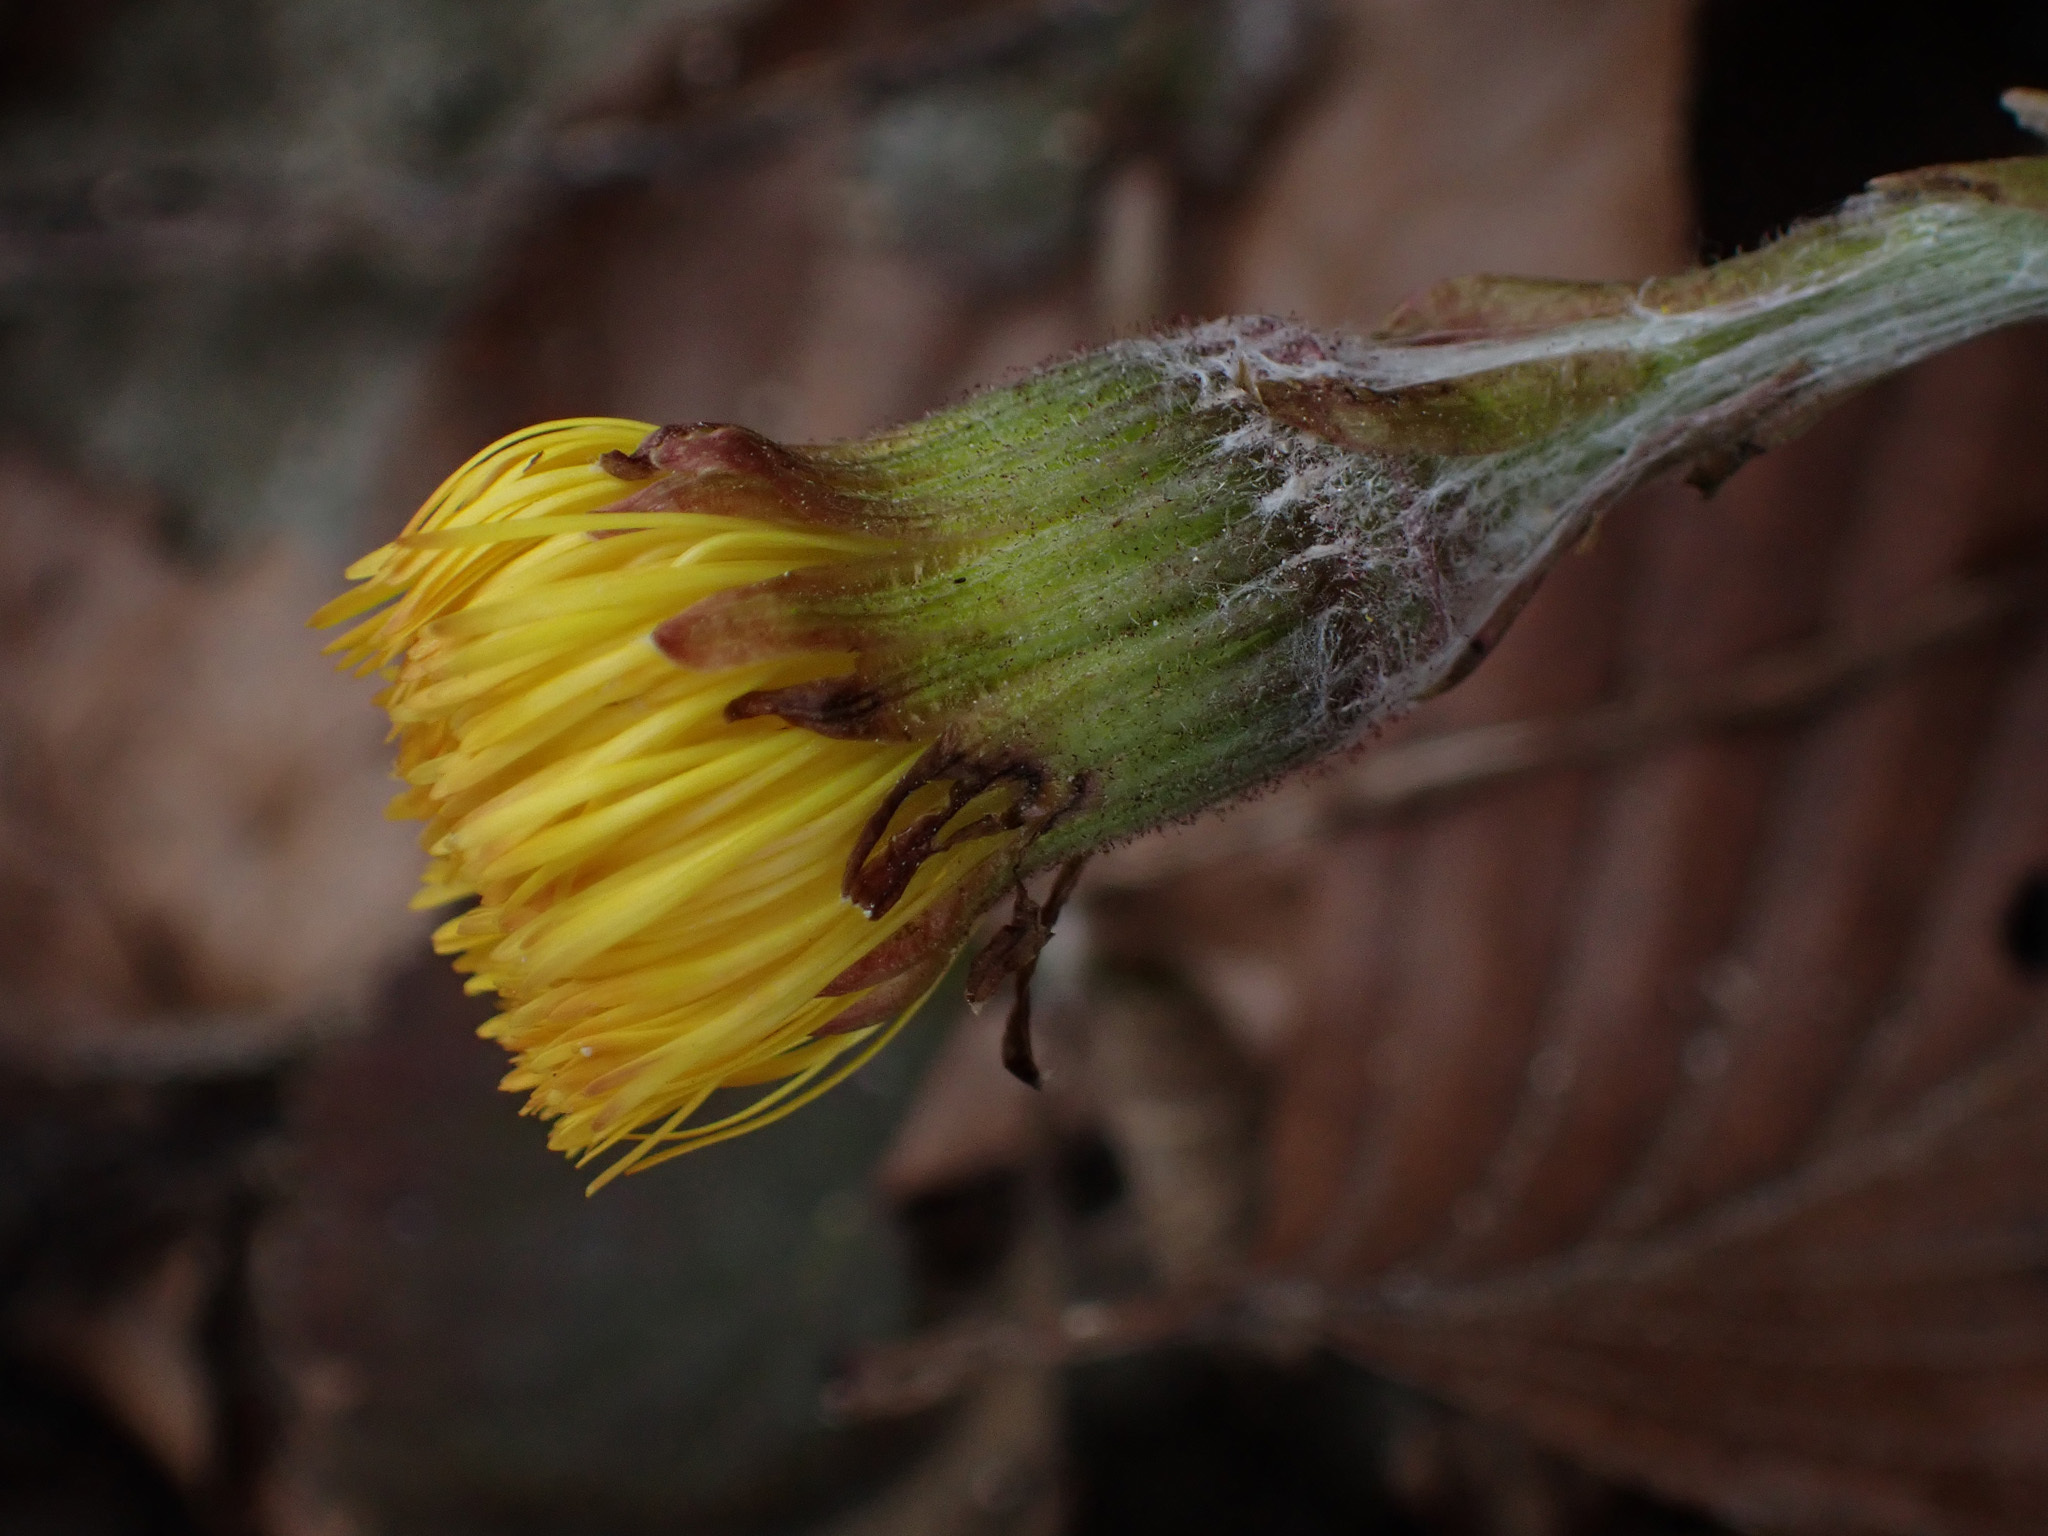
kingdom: Plantae
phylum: Tracheophyta
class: Magnoliopsida
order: Asterales
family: Asteraceae
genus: Tussilago
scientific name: Tussilago farfara
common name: Coltsfoot
